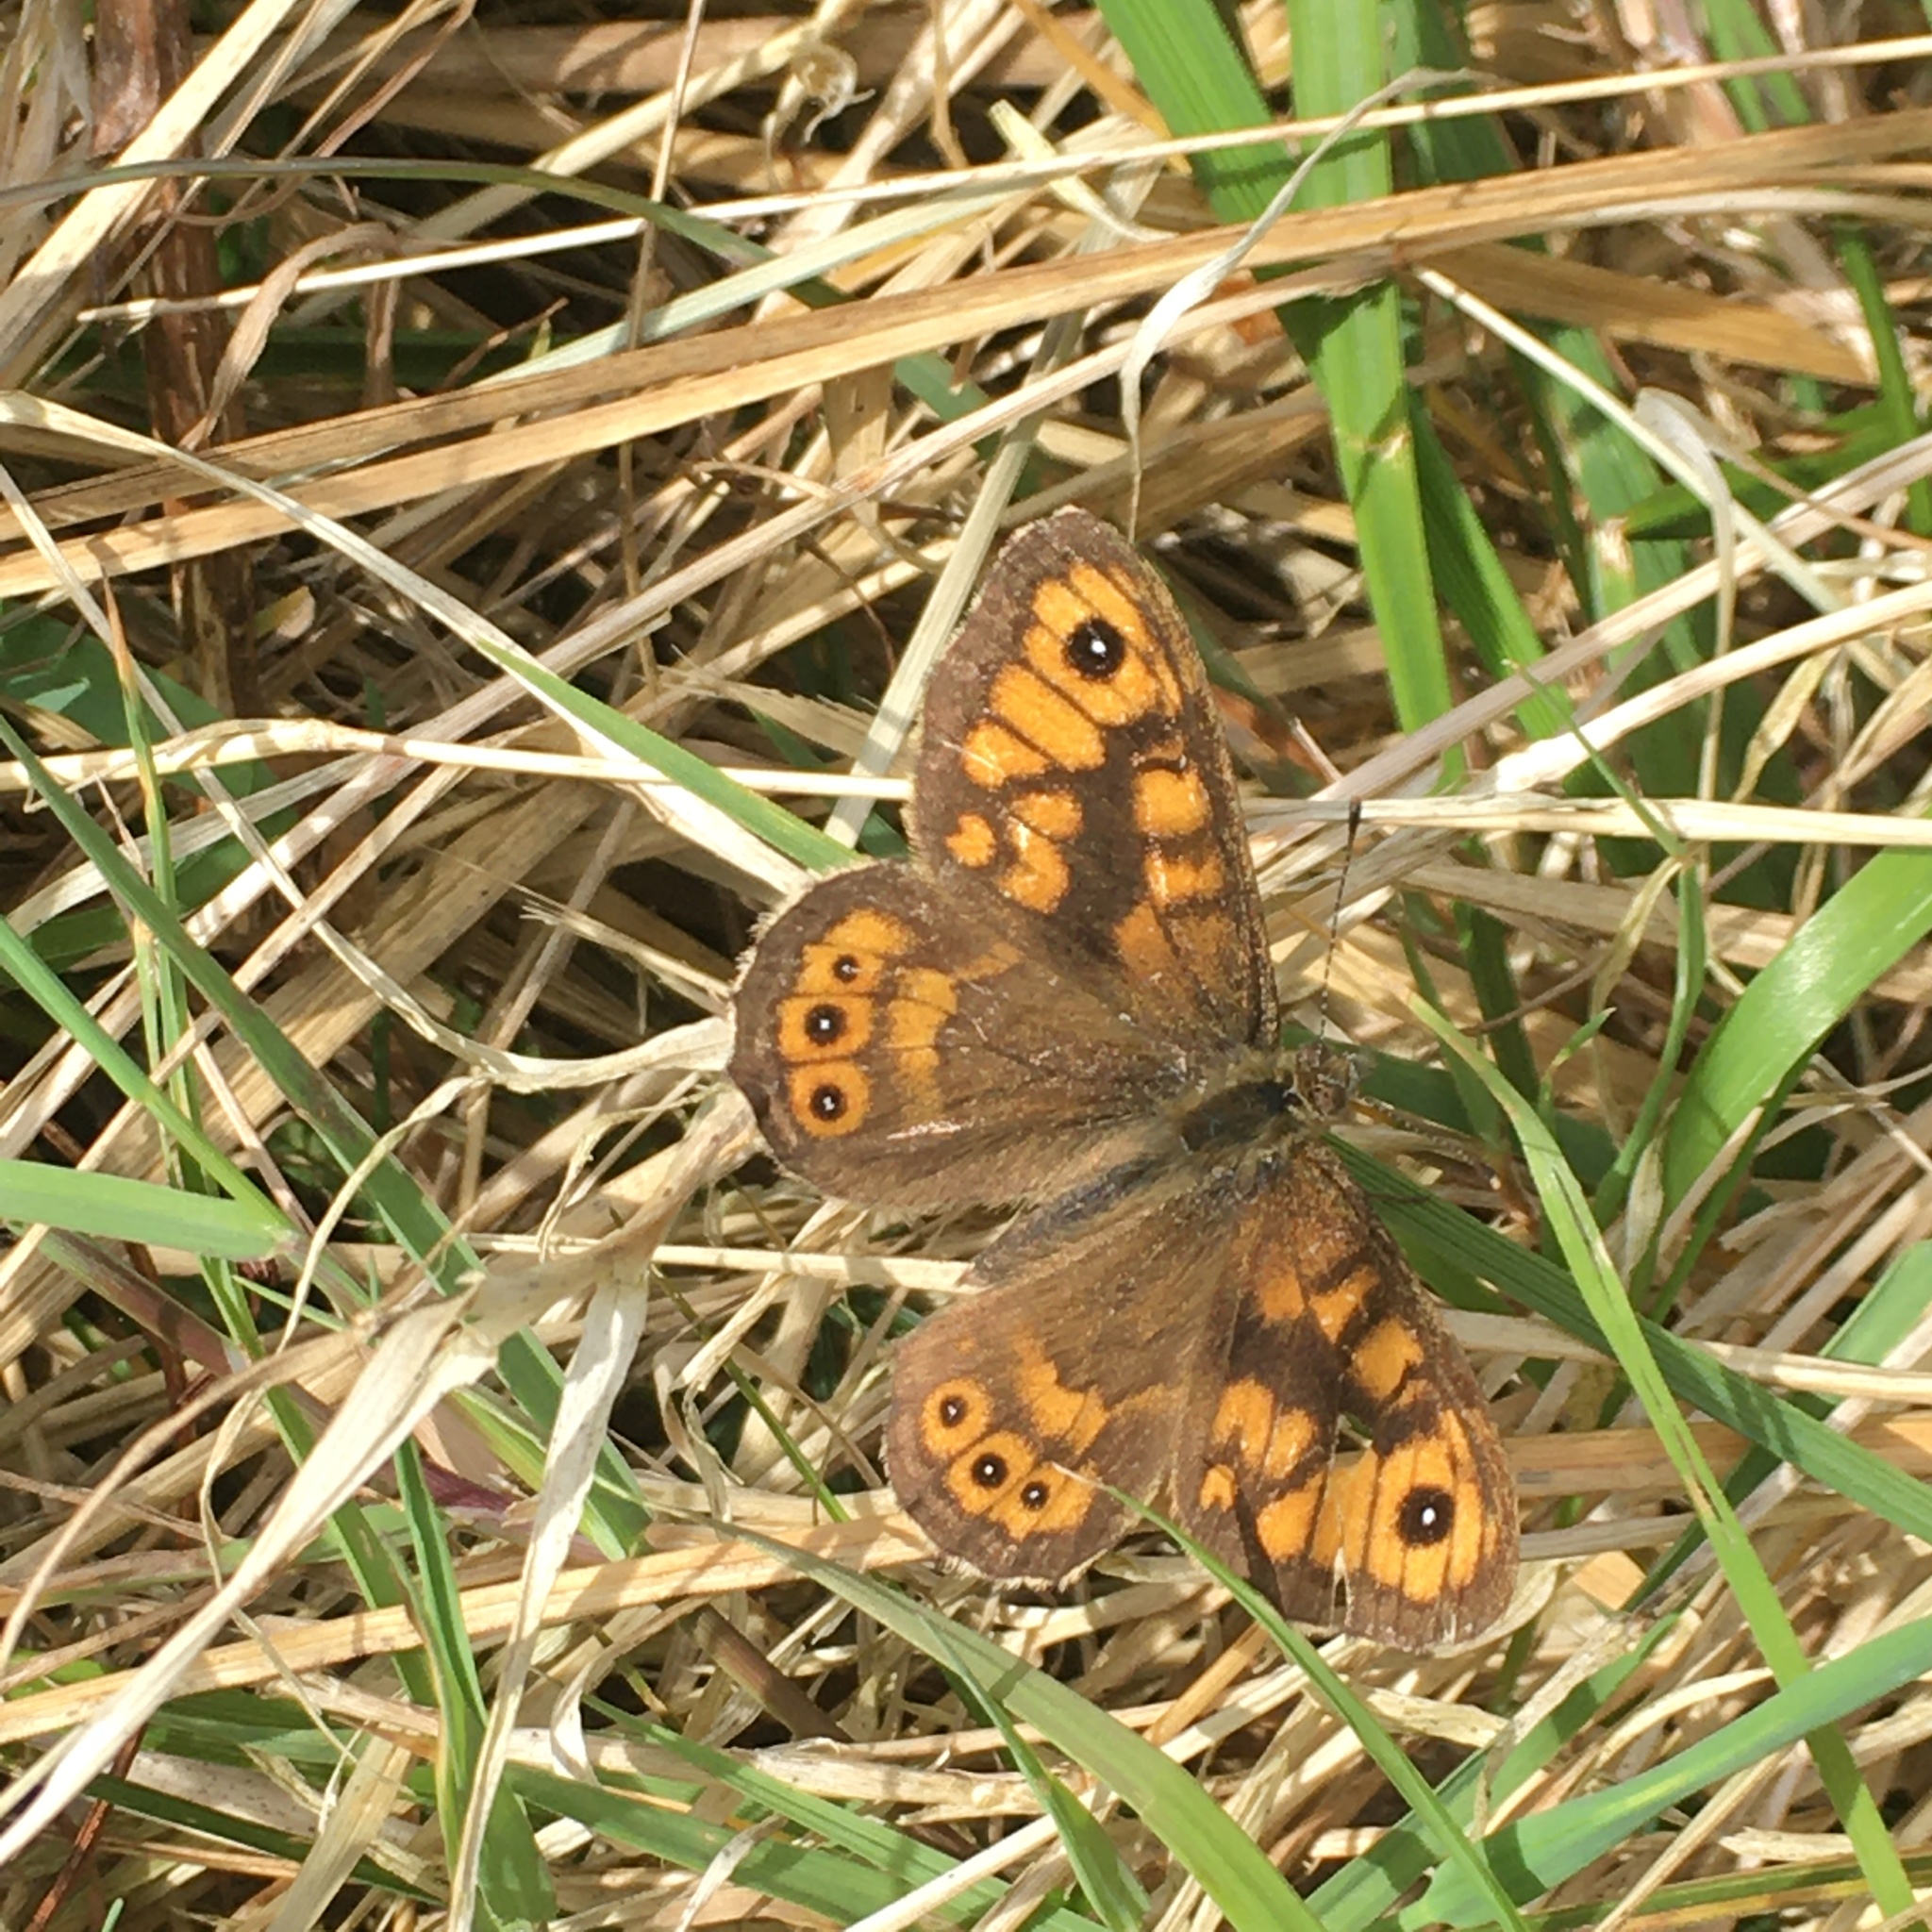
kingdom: Animalia
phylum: Arthropoda
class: Insecta
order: Lepidoptera
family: Nymphalidae
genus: Pararge
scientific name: Pararge Lasiommata megera
